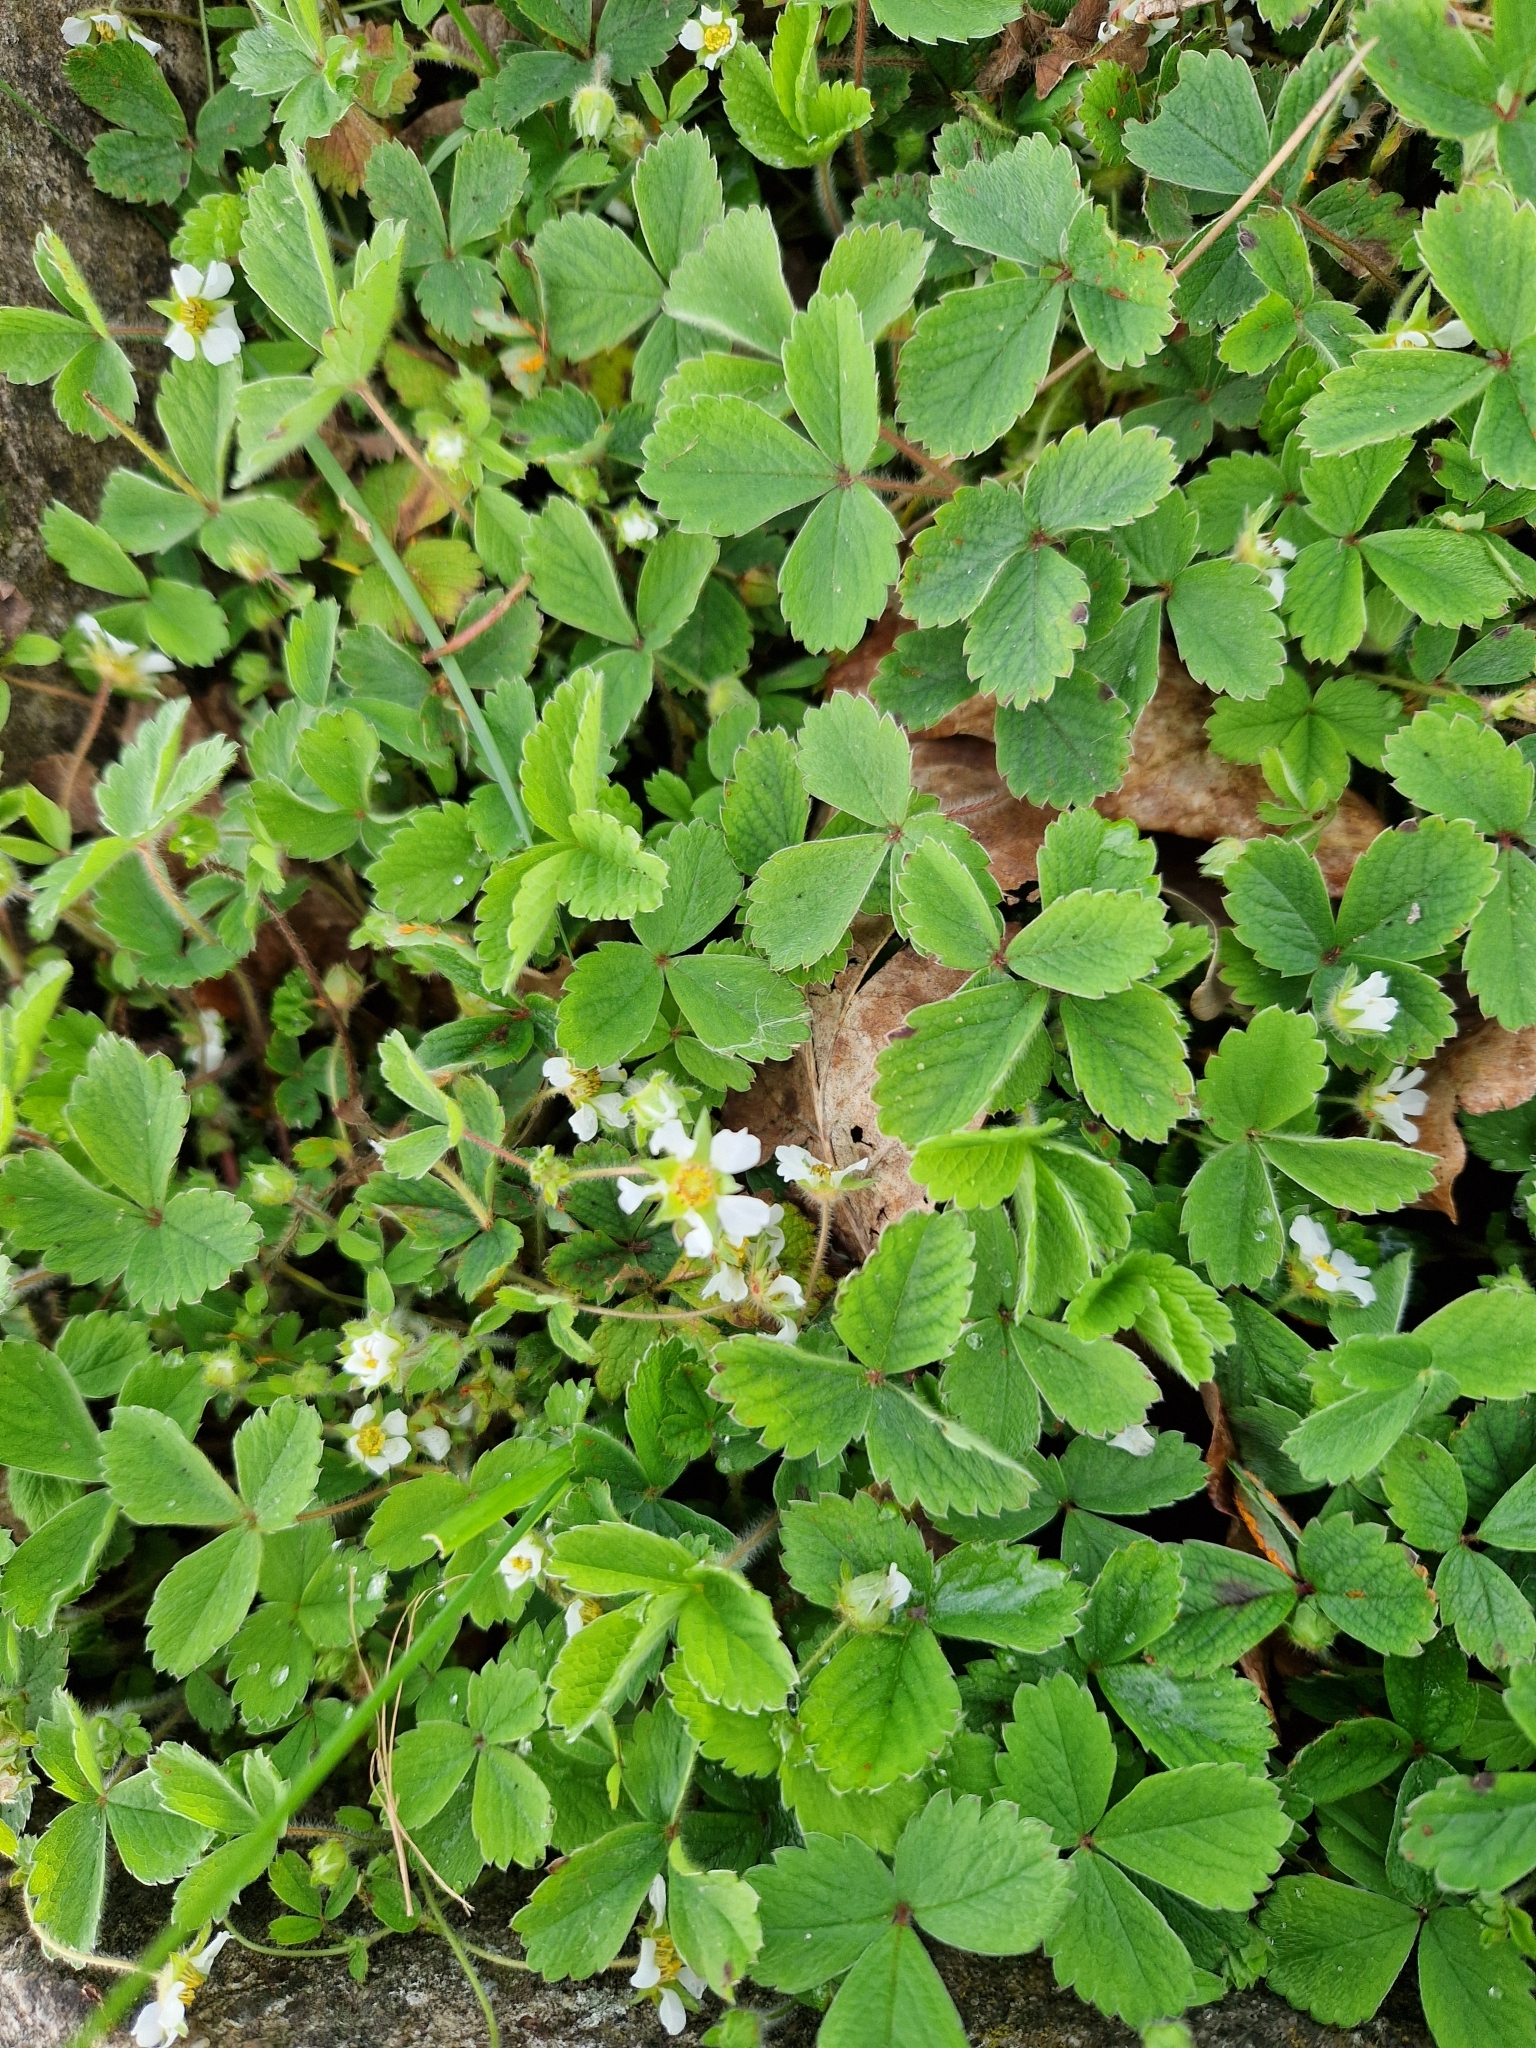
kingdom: Plantae
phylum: Tracheophyta
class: Magnoliopsida
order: Rosales
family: Rosaceae
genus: Potentilla
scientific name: Potentilla sterilis
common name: Barren strawberry
